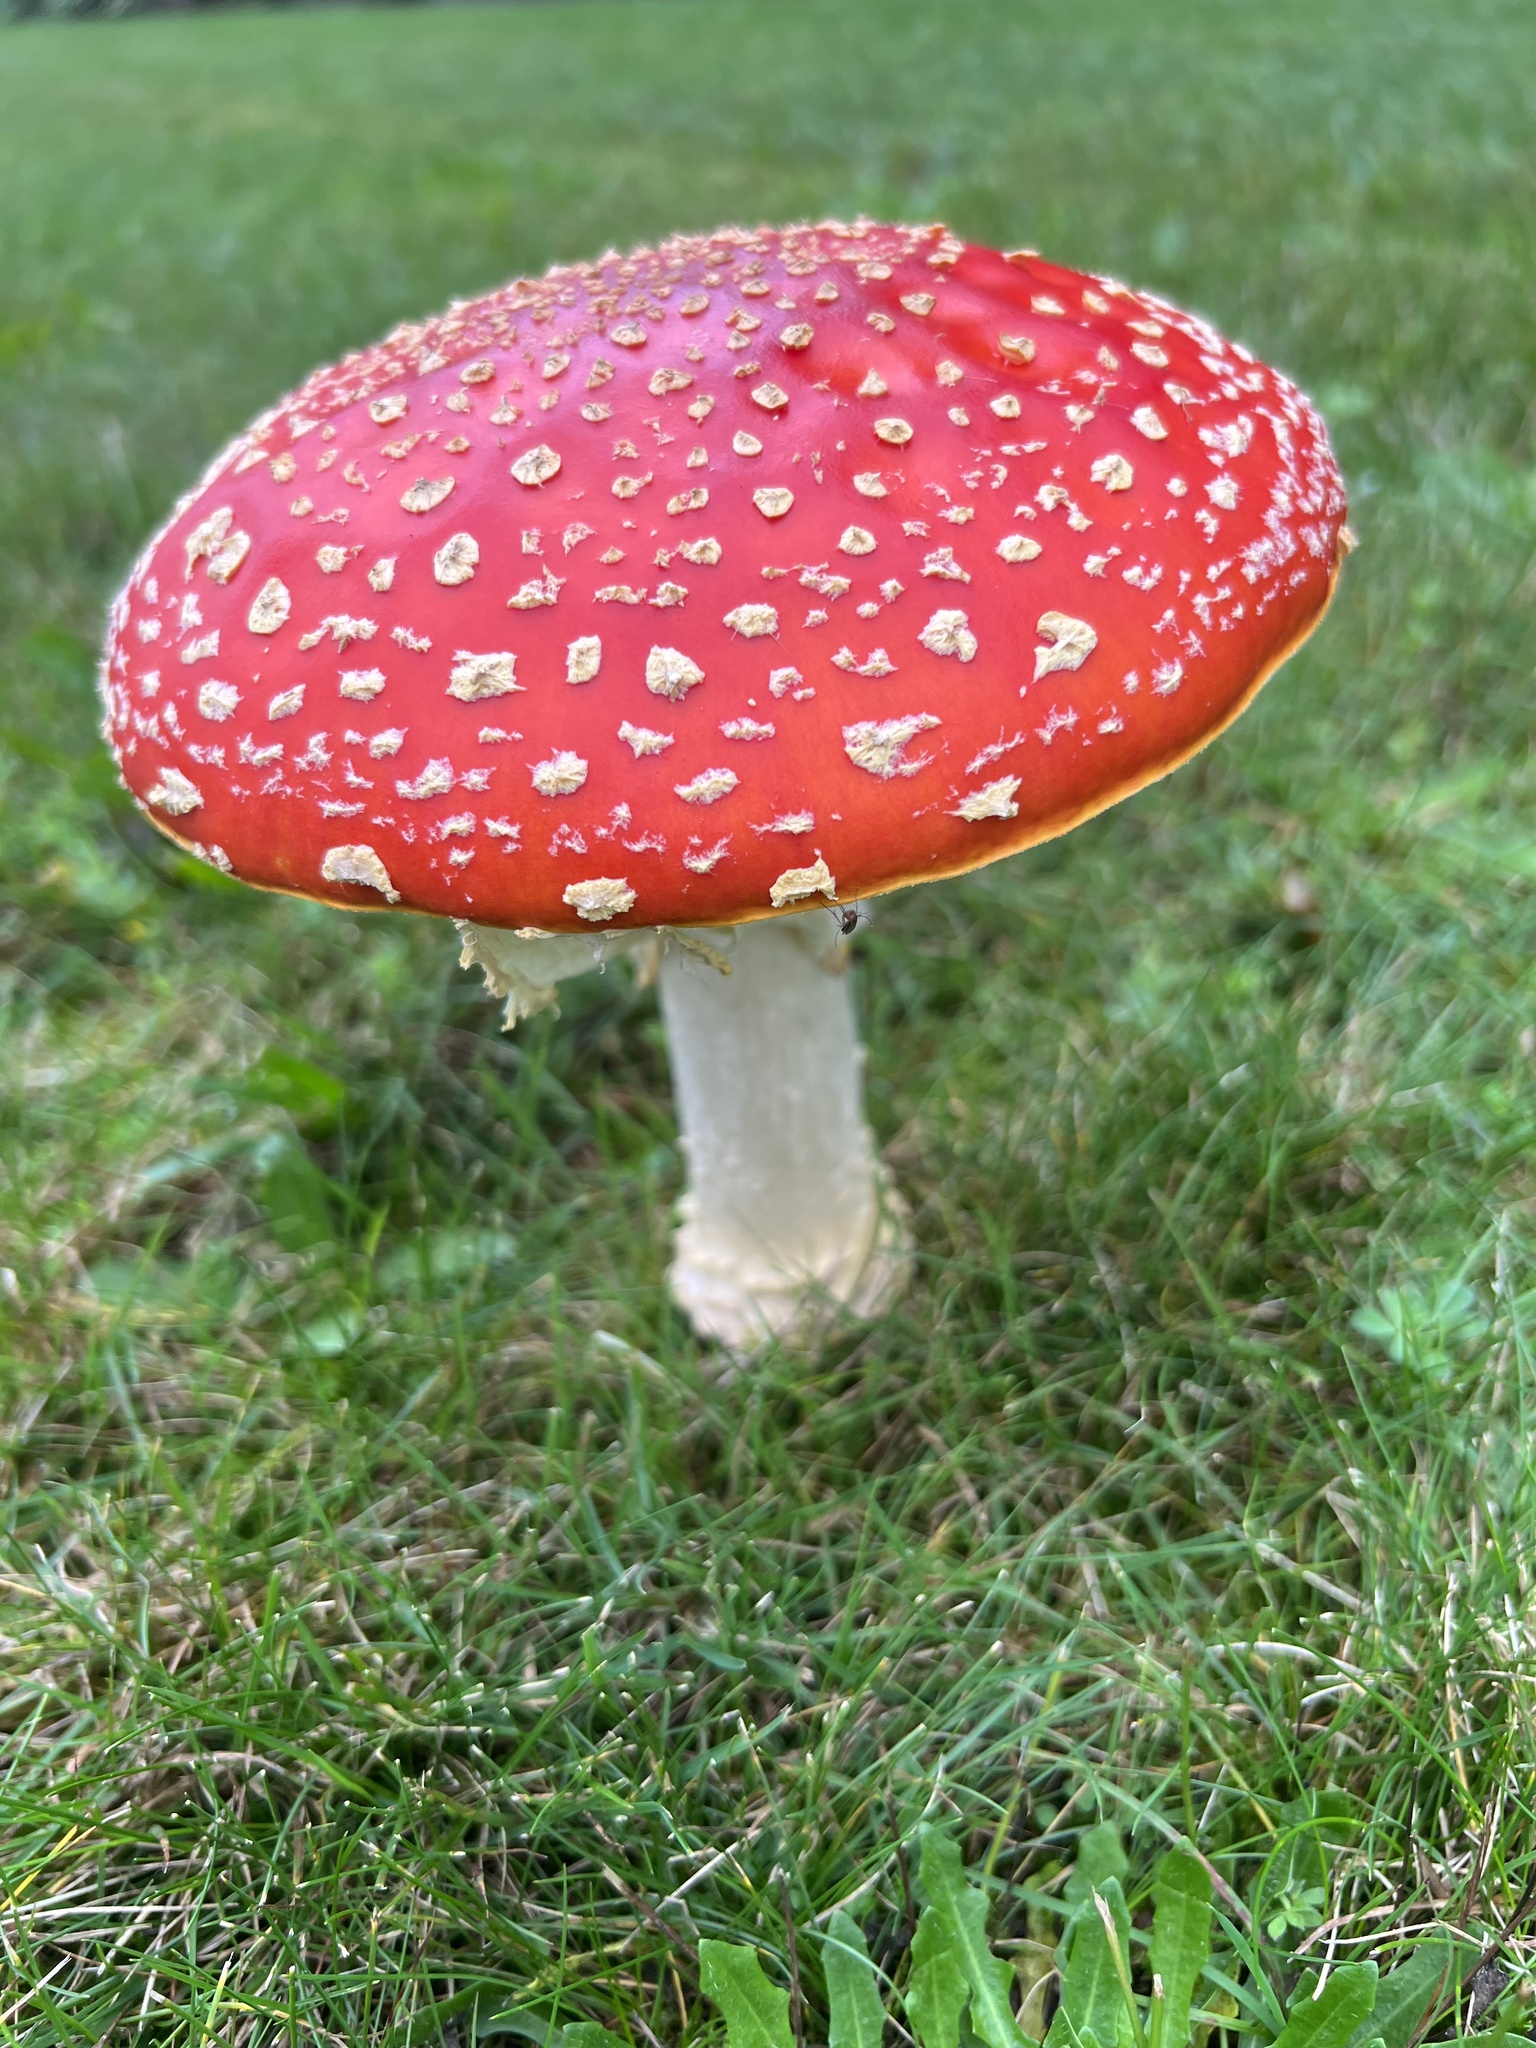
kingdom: Fungi
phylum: Basidiomycota
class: Agaricomycetes
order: Agaricales
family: Amanitaceae
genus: Amanita
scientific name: Amanita muscaria
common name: Fly agaric
